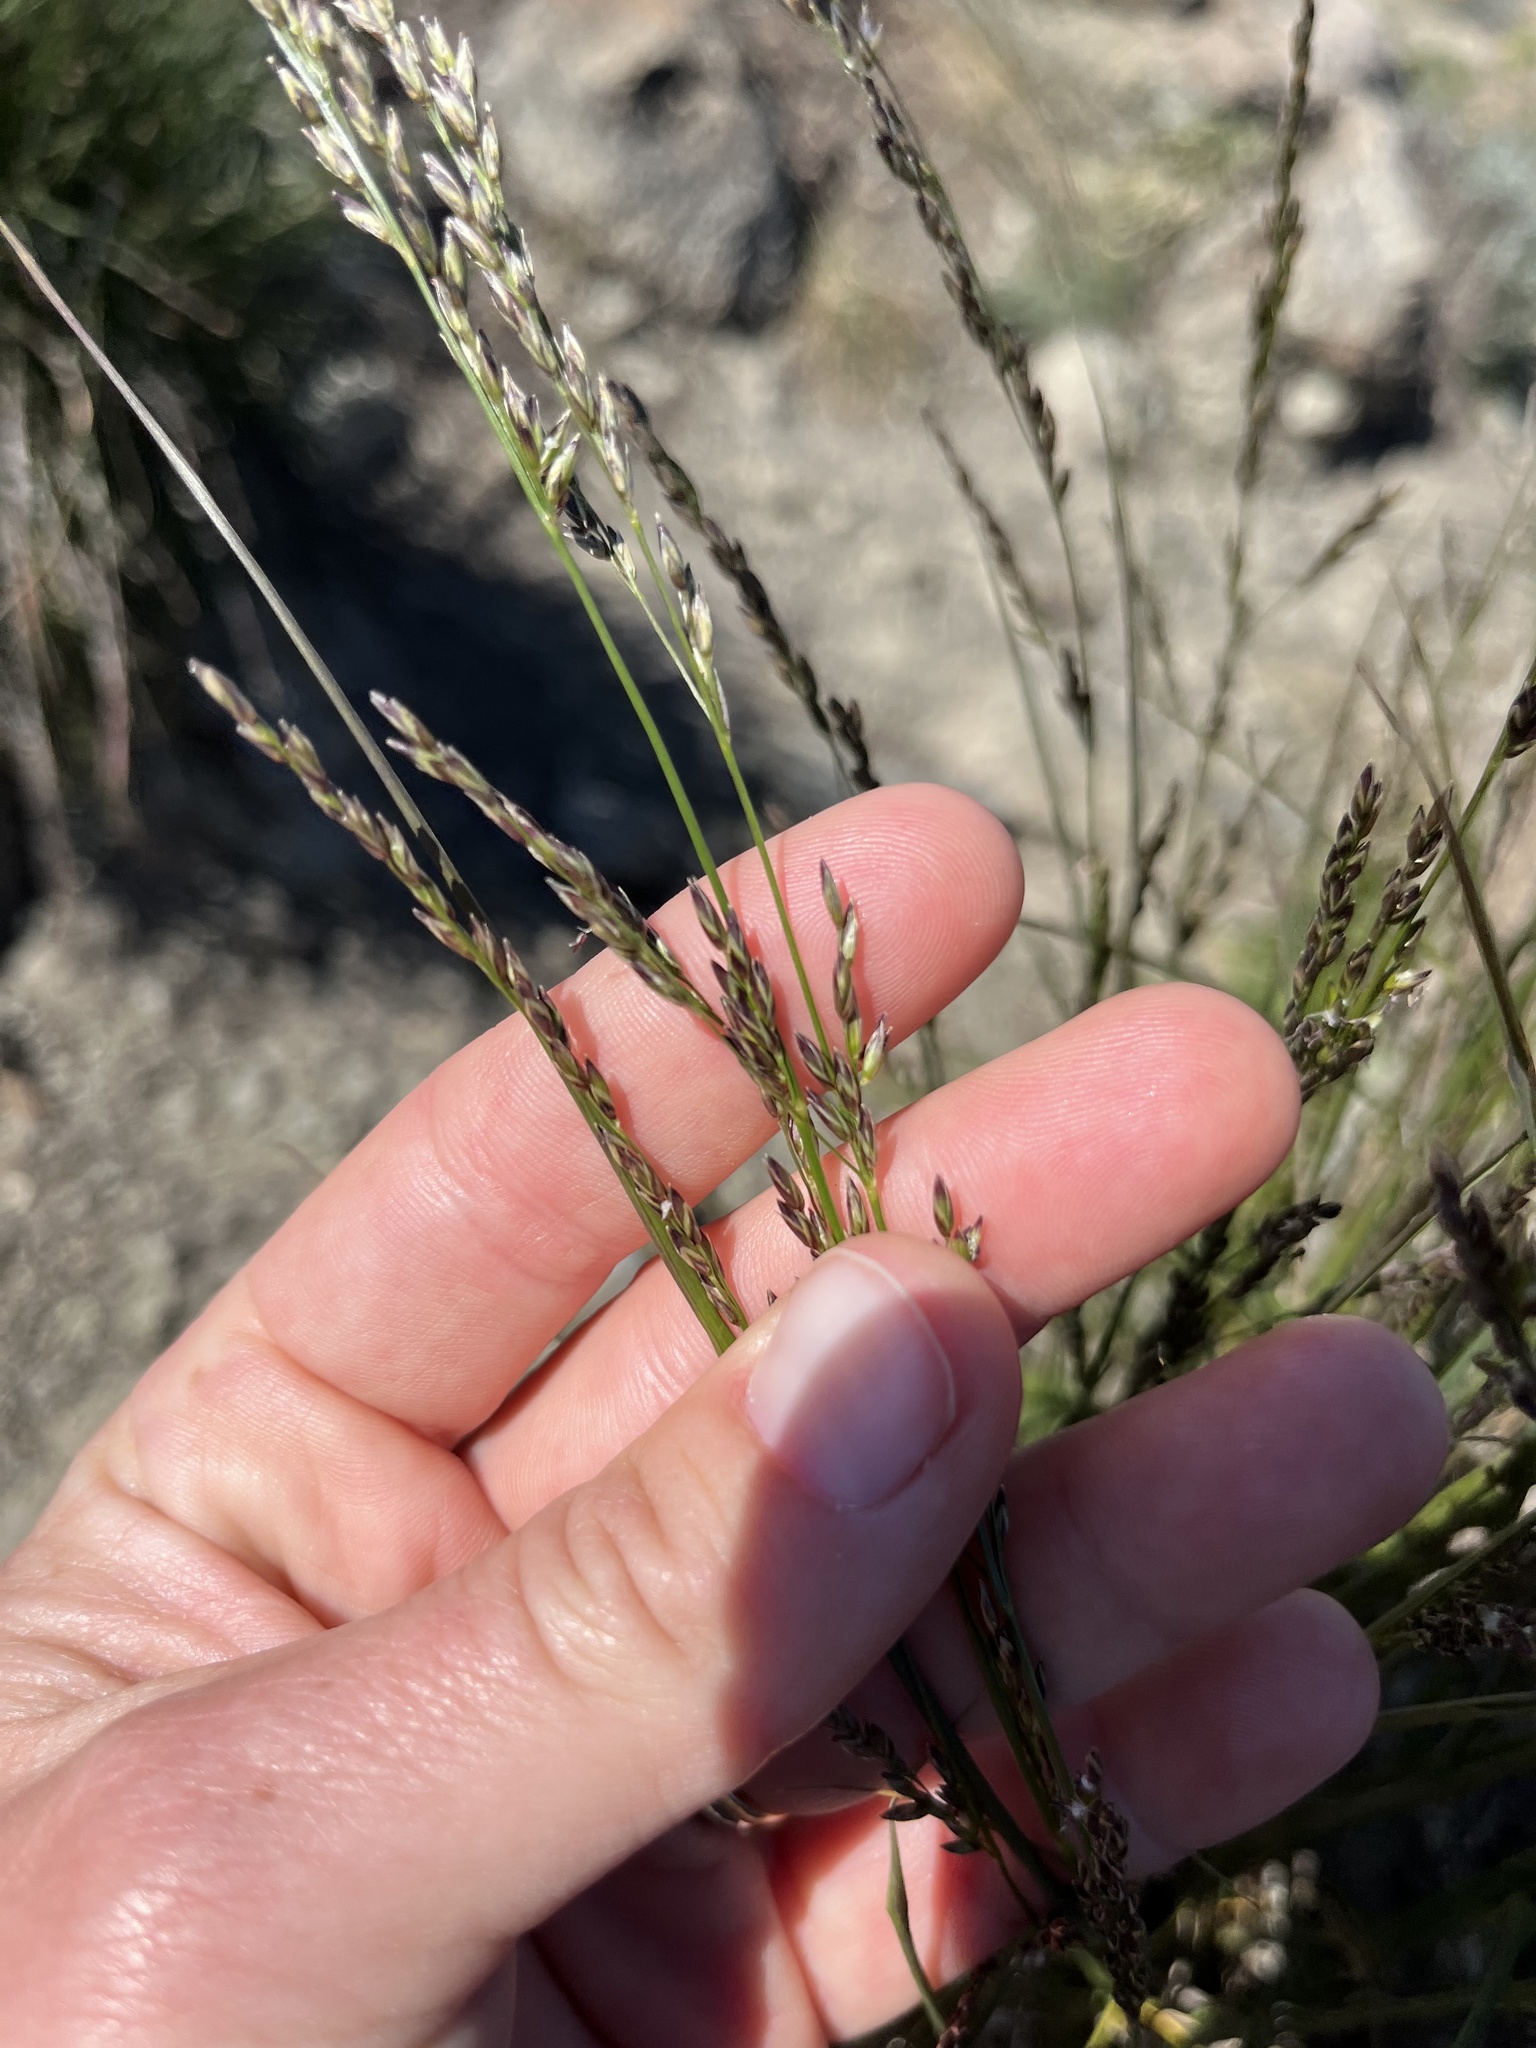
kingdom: Plantae
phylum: Tracheophyta
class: Liliopsida
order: Poales
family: Poaceae
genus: Melica
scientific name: Melica imperfecta
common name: California melic
